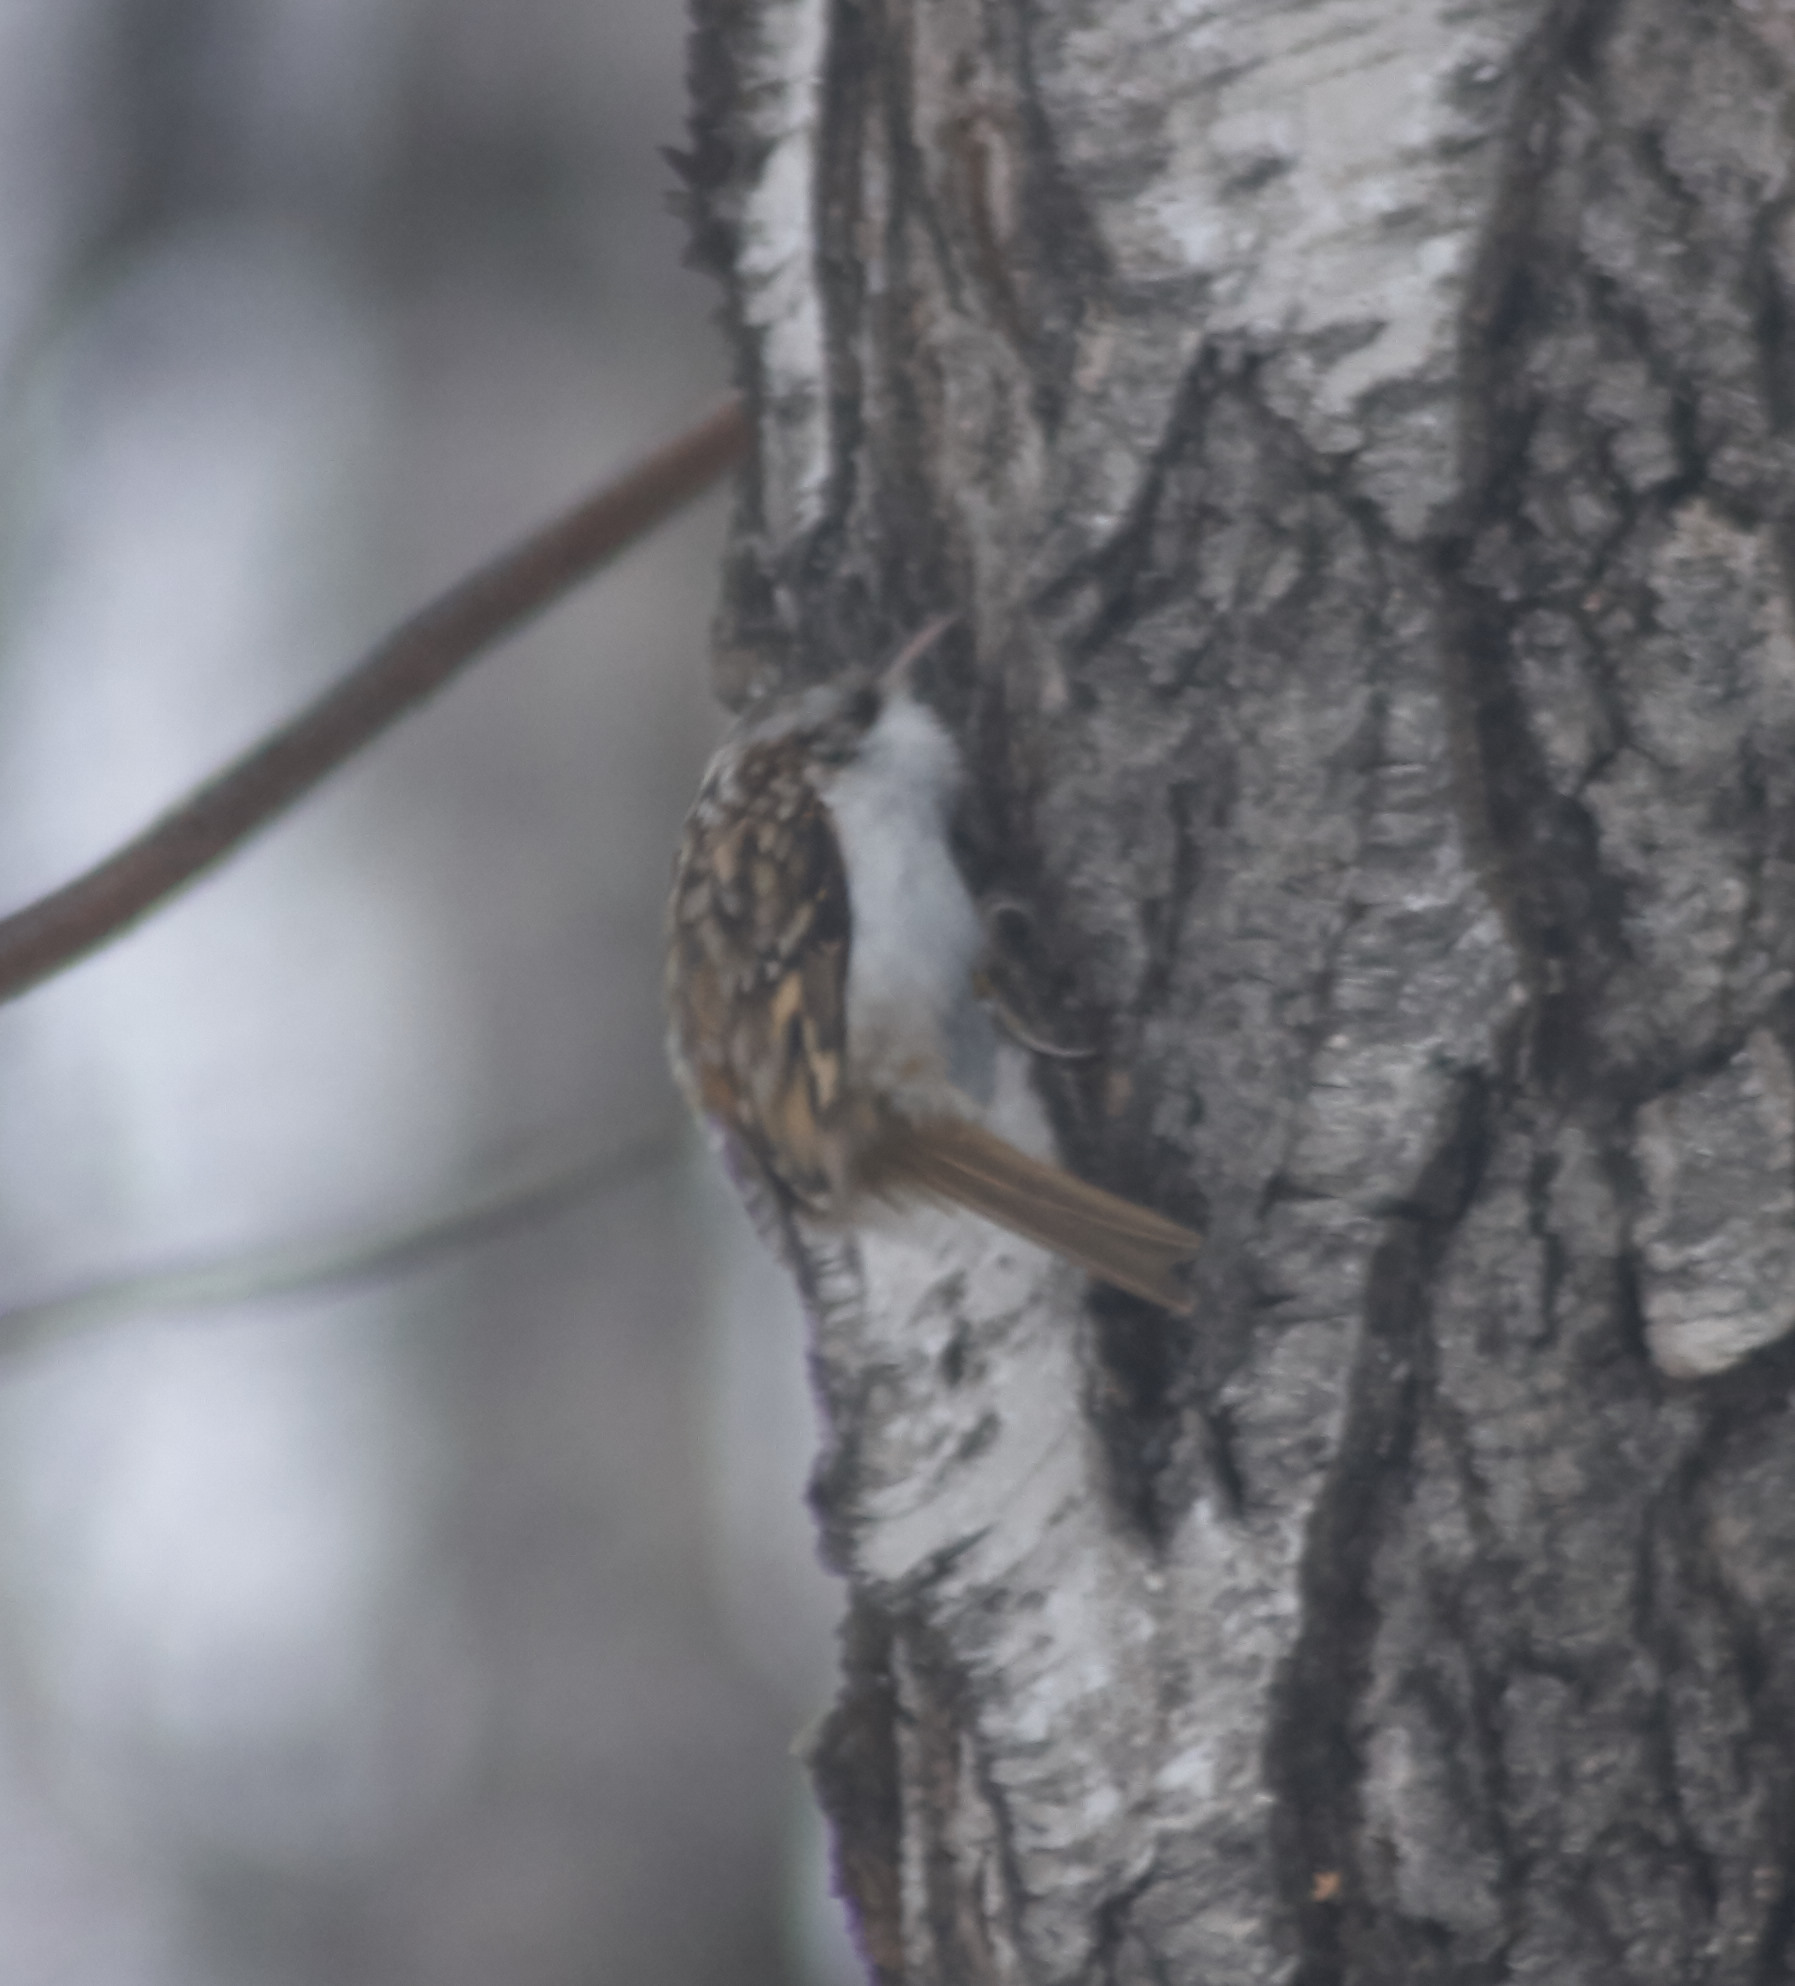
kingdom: Animalia
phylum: Chordata
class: Aves
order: Passeriformes
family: Certhiidae
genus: Certhia
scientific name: Certhia familiaris
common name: Eurasian treecreeper
